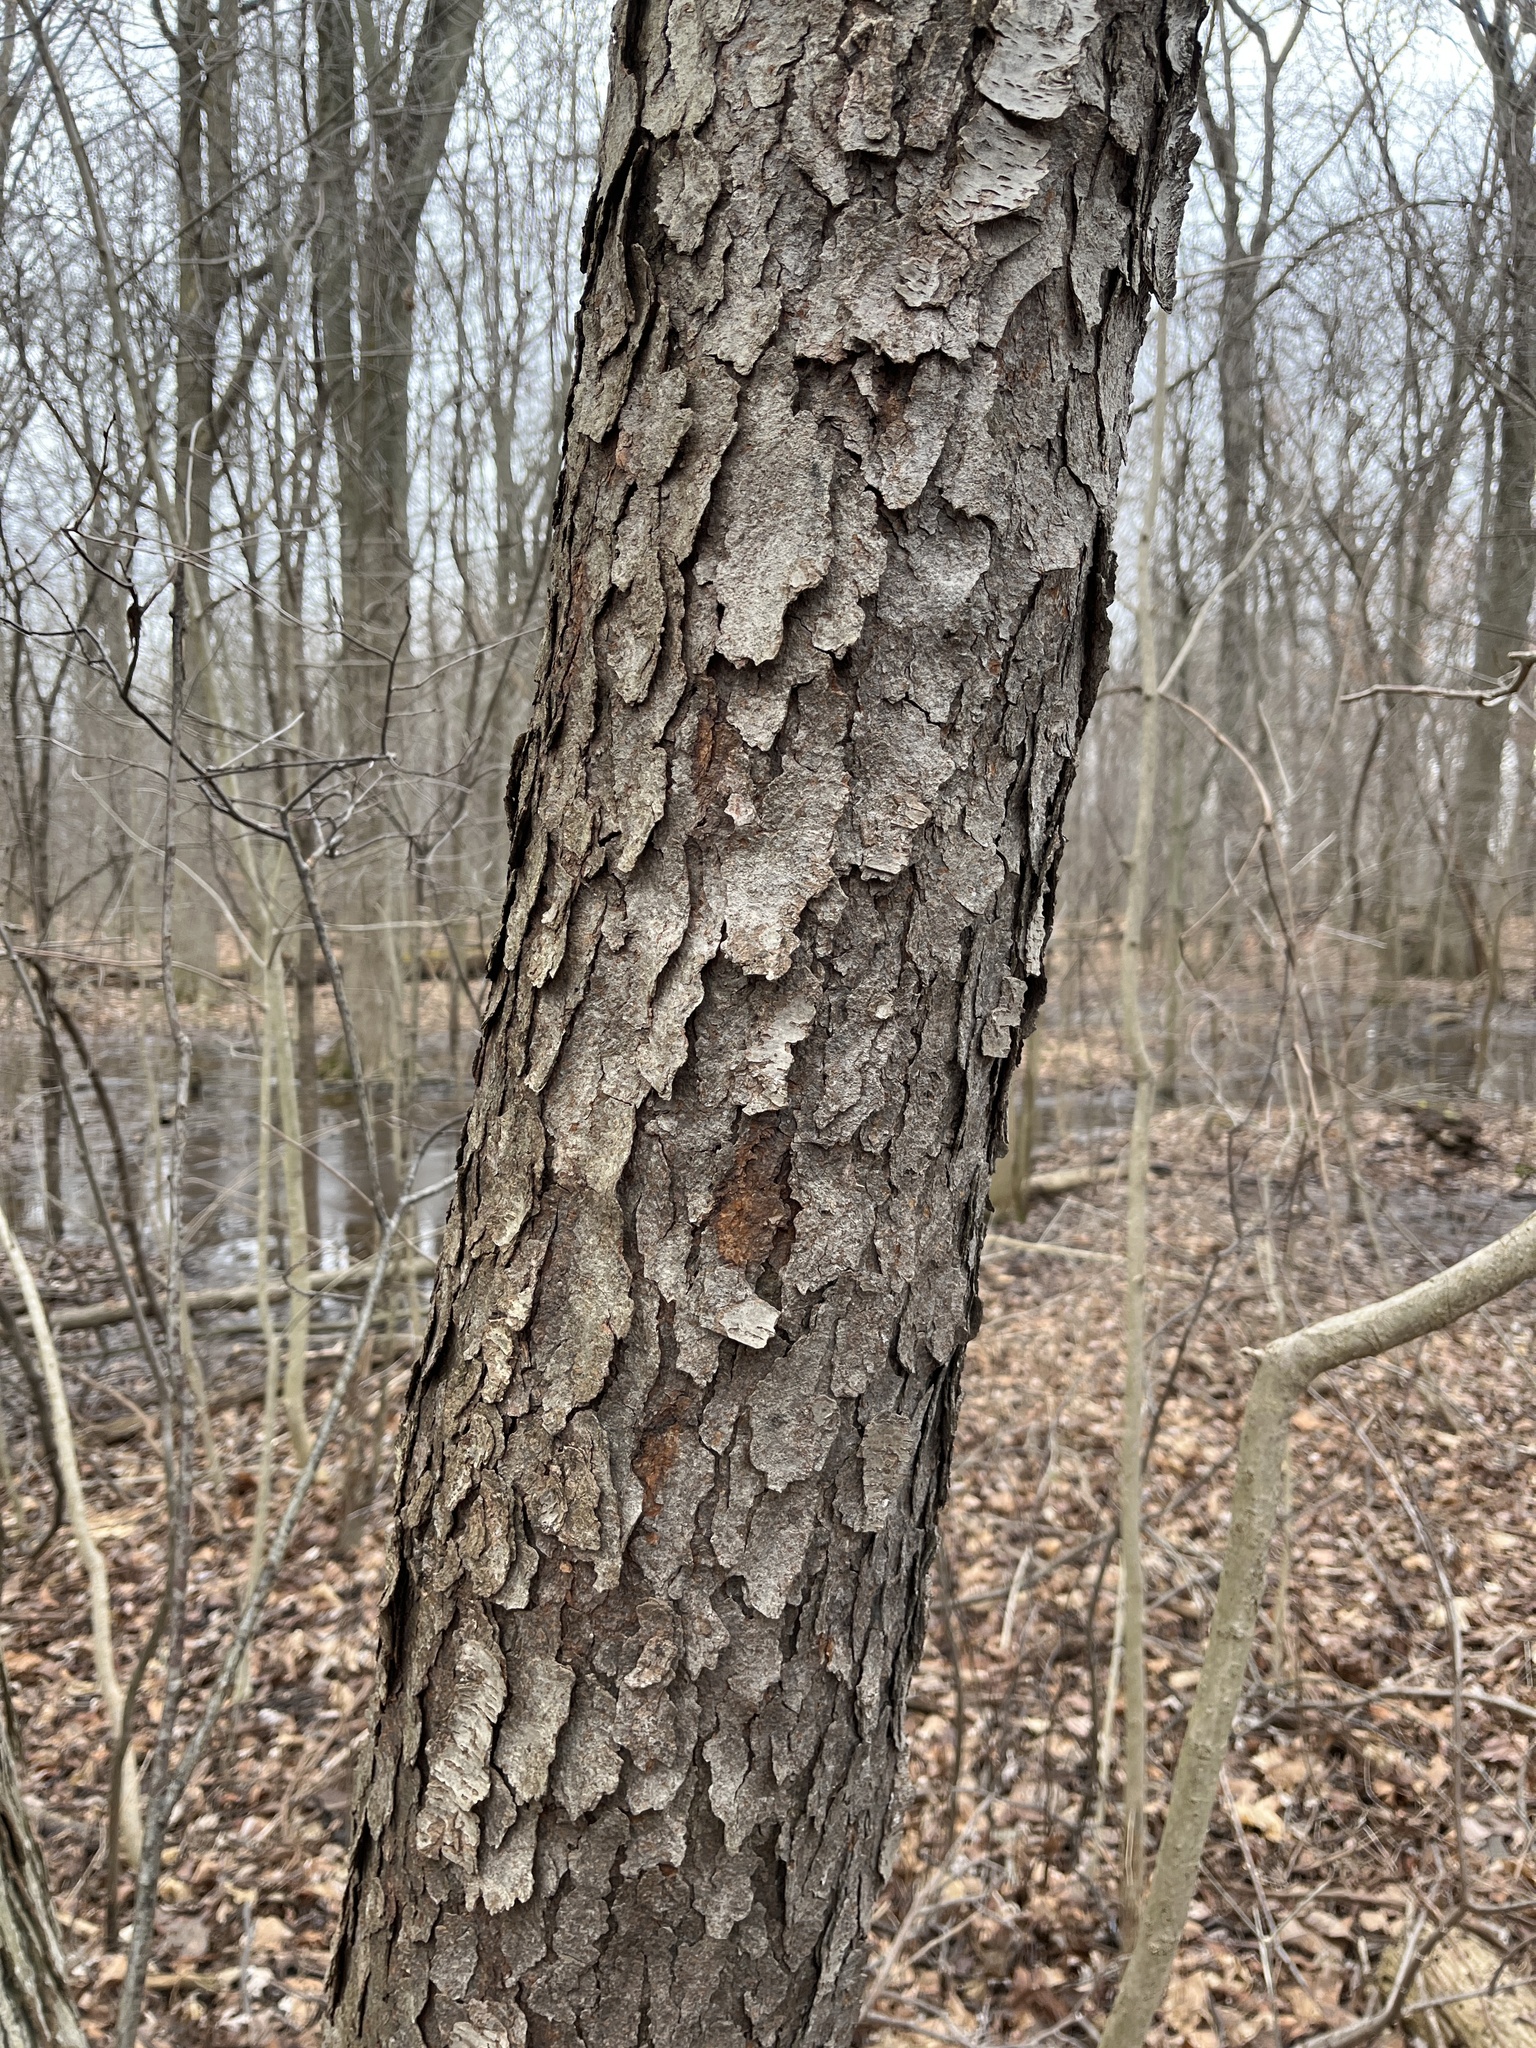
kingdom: Plantae
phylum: Tracheophyta
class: Magnoliopsida
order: Rosales
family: Rosaceae
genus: Prunus
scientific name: Prunus serotina
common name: Black cherry
